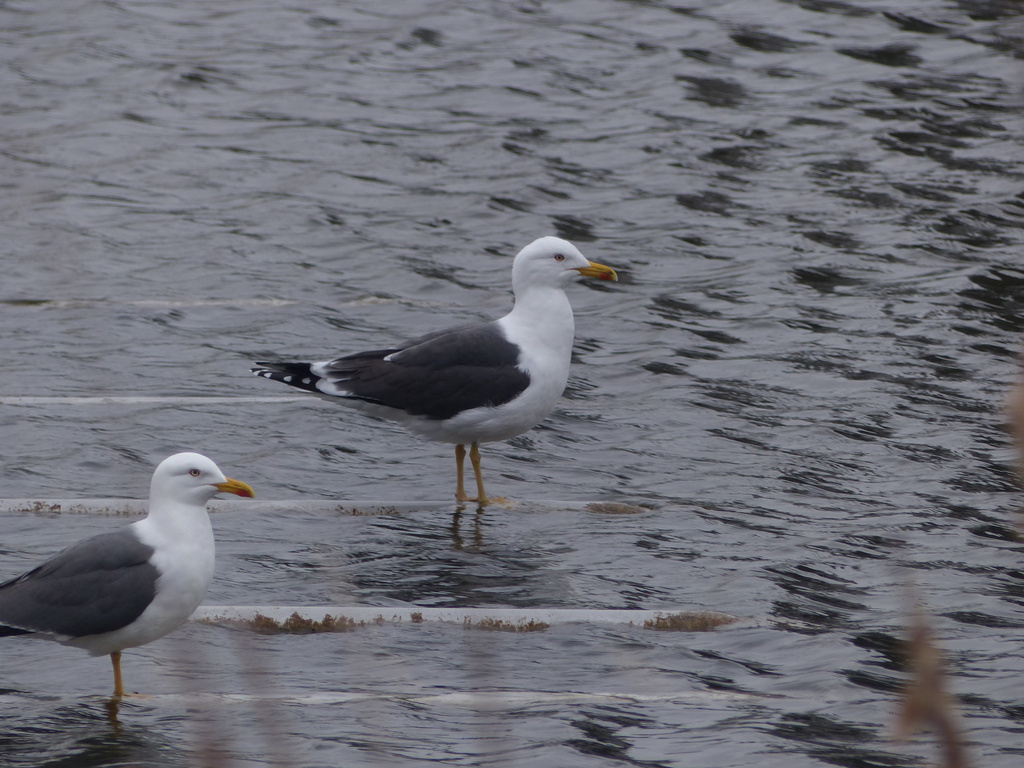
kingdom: Animalia
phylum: Chordata
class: Aves
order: Charadriiformes
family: Laridae
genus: Larus
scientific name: Larus fuscus
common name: Lesser black-backed gull
